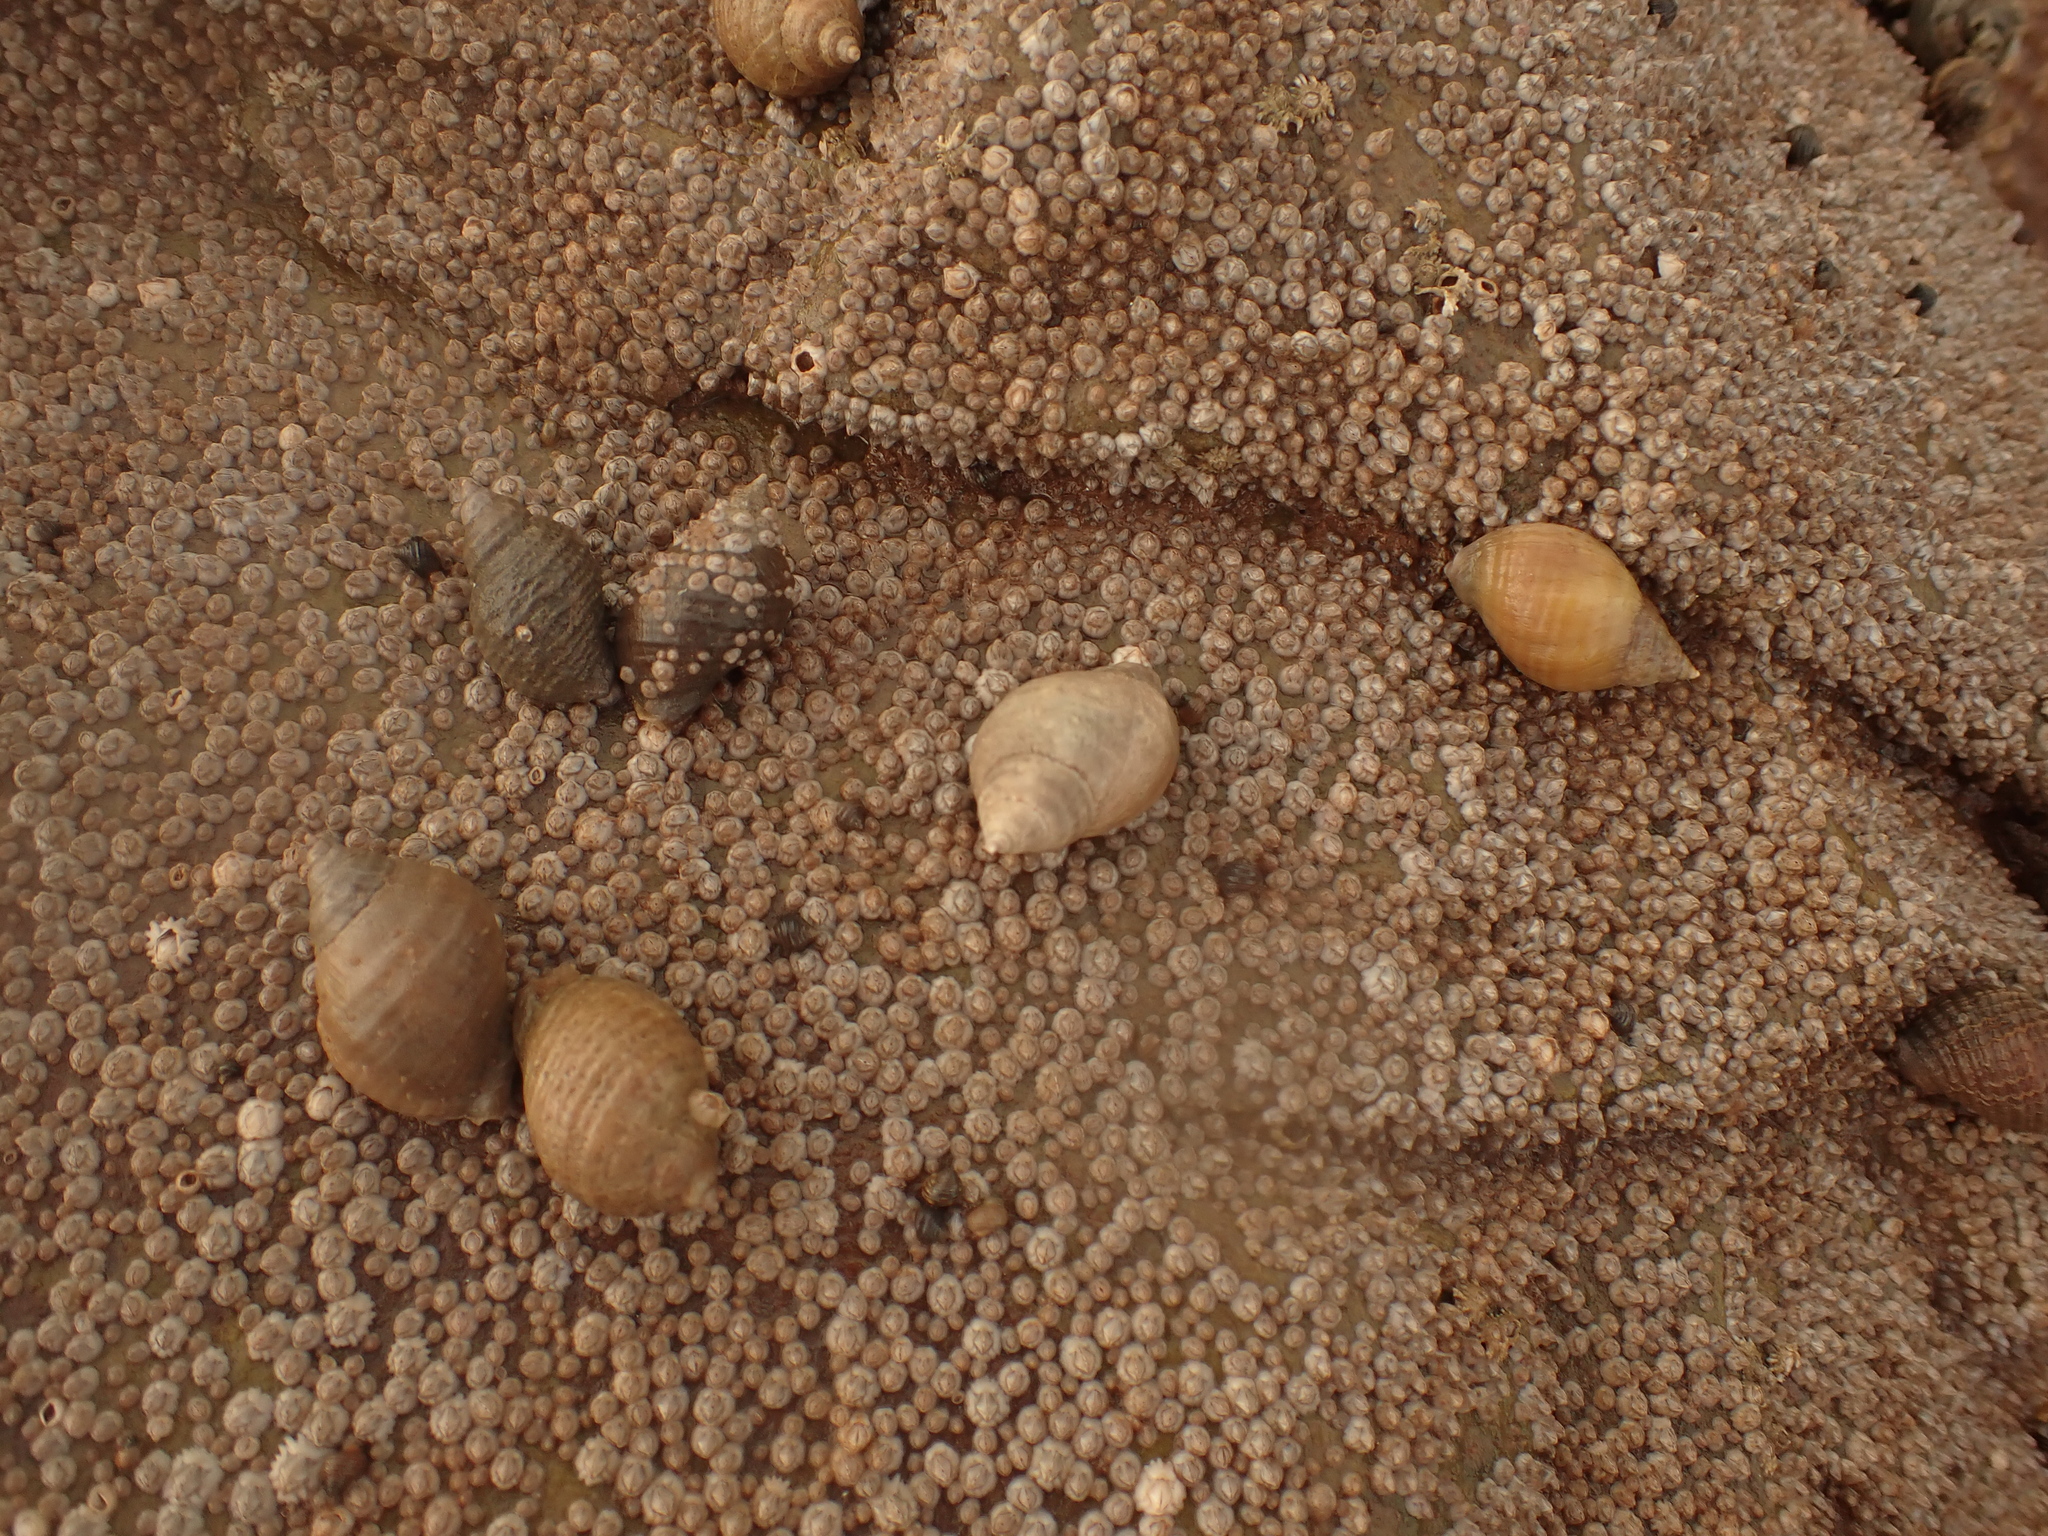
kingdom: Animalia
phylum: Mollusca
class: Gastropoda
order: Neogastropoda
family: Muricidae
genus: Nucella
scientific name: Nucella lapillus
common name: Dog whelk
